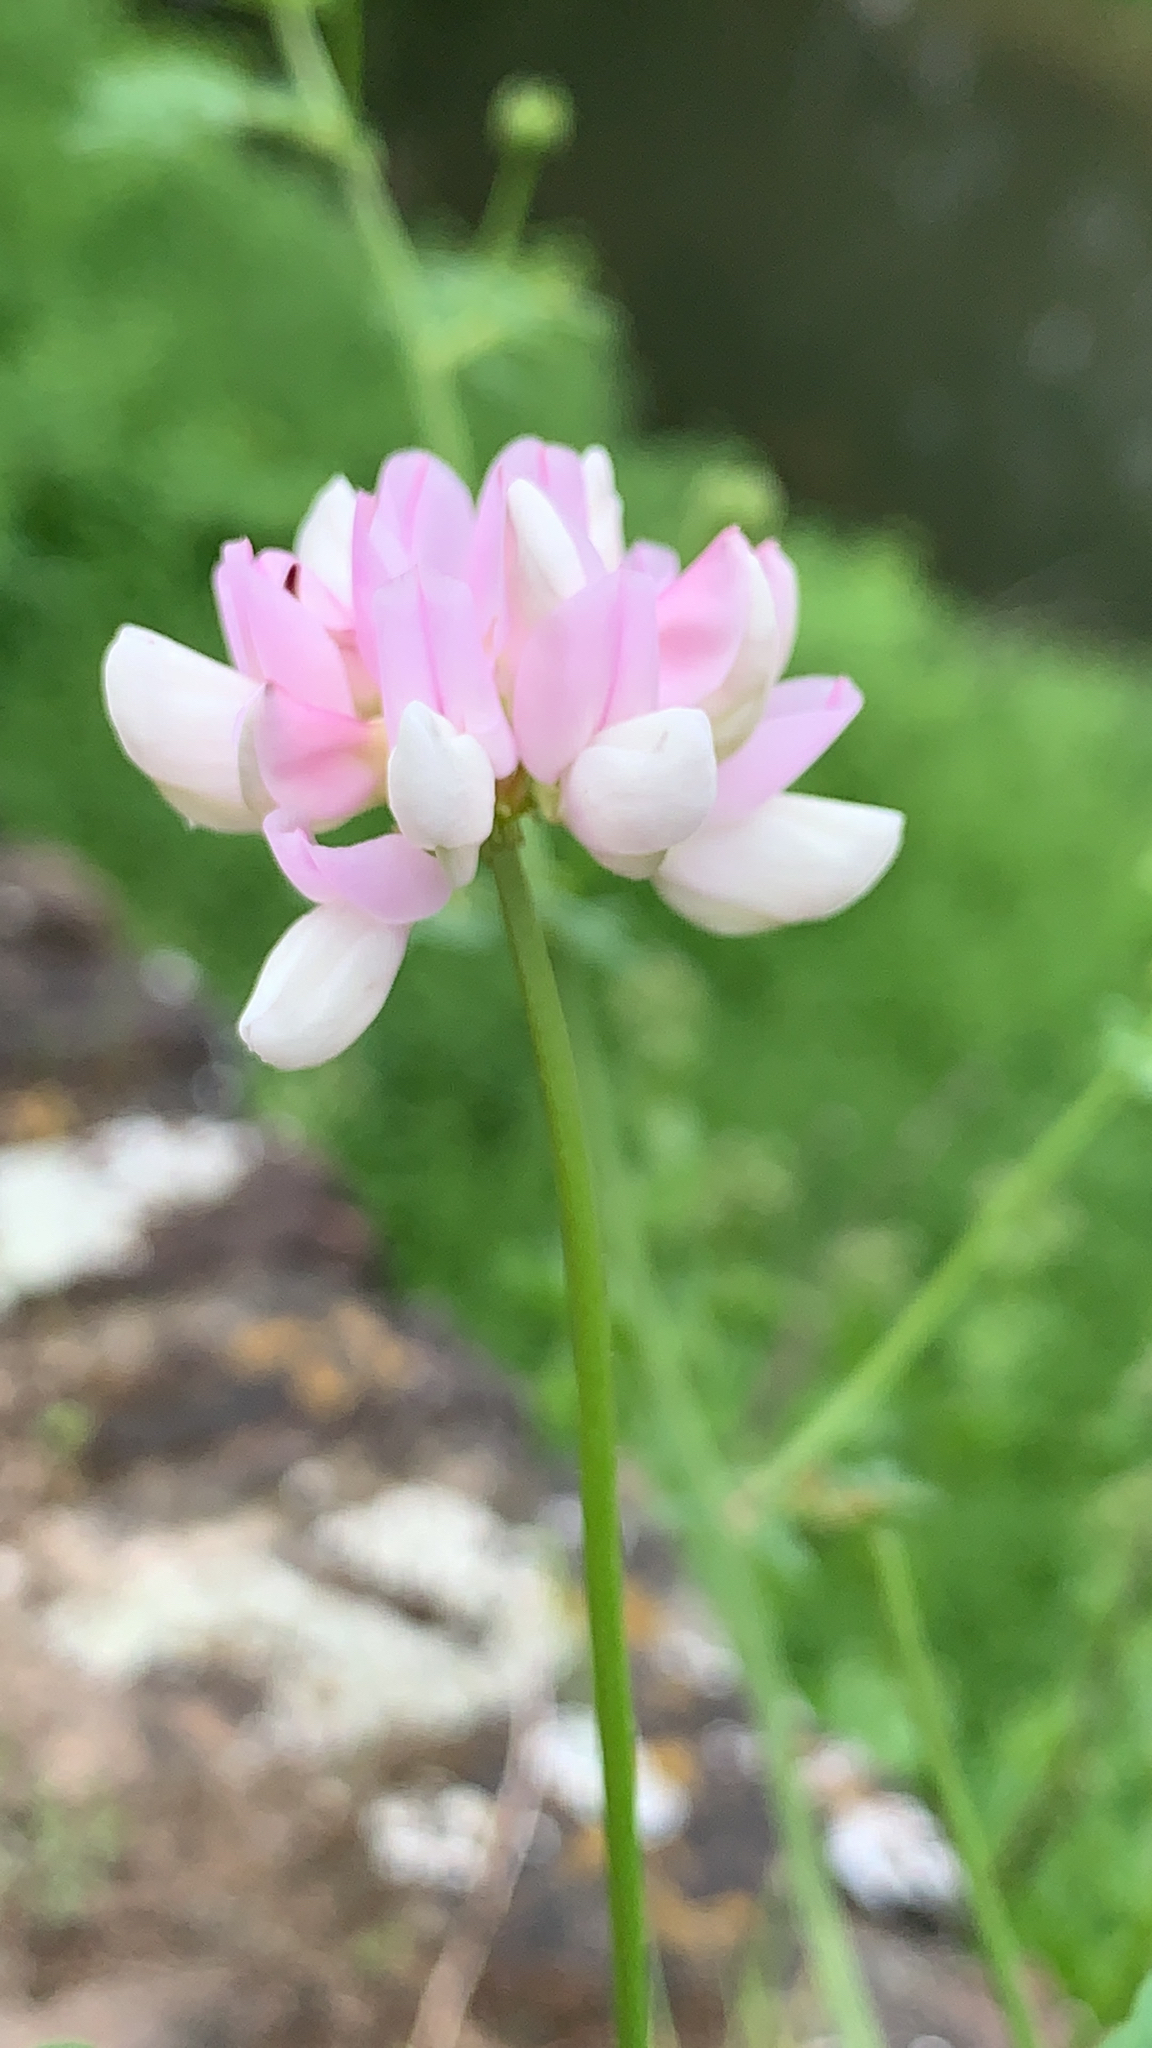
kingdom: Plantae
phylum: Tracheophyta
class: Magnoliopsida
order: Fabales
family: Fabaceae
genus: Coronilla
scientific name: Coronilla varia
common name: Crownvetch
